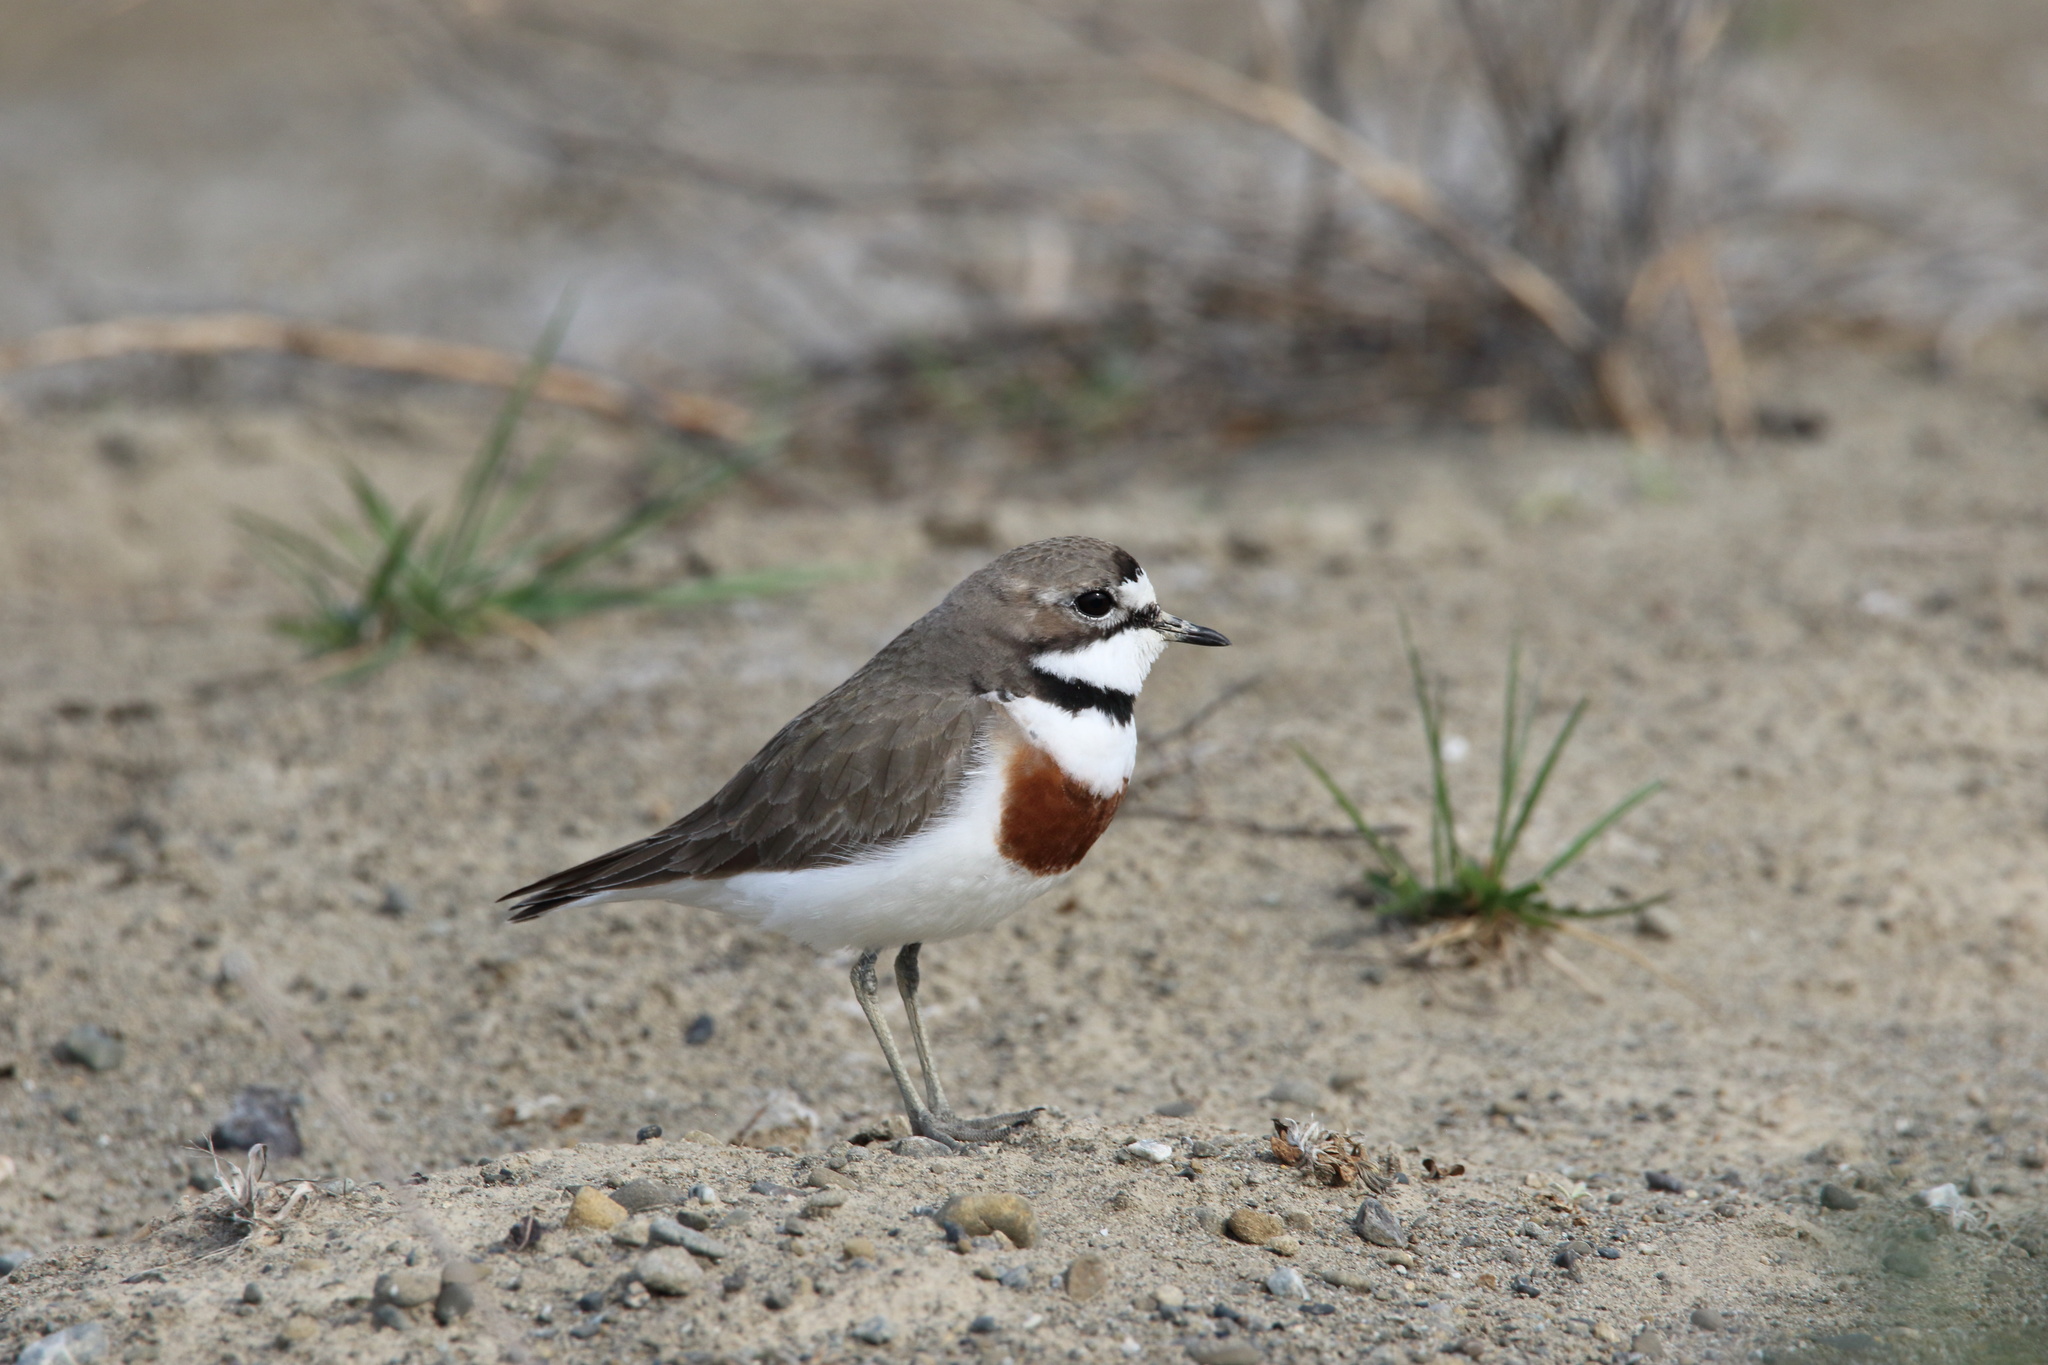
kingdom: Animalia
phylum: Chordata
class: Aves
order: Charadriiformes
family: Charadriidae
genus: Anarhynchus
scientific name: Anarhynchus
